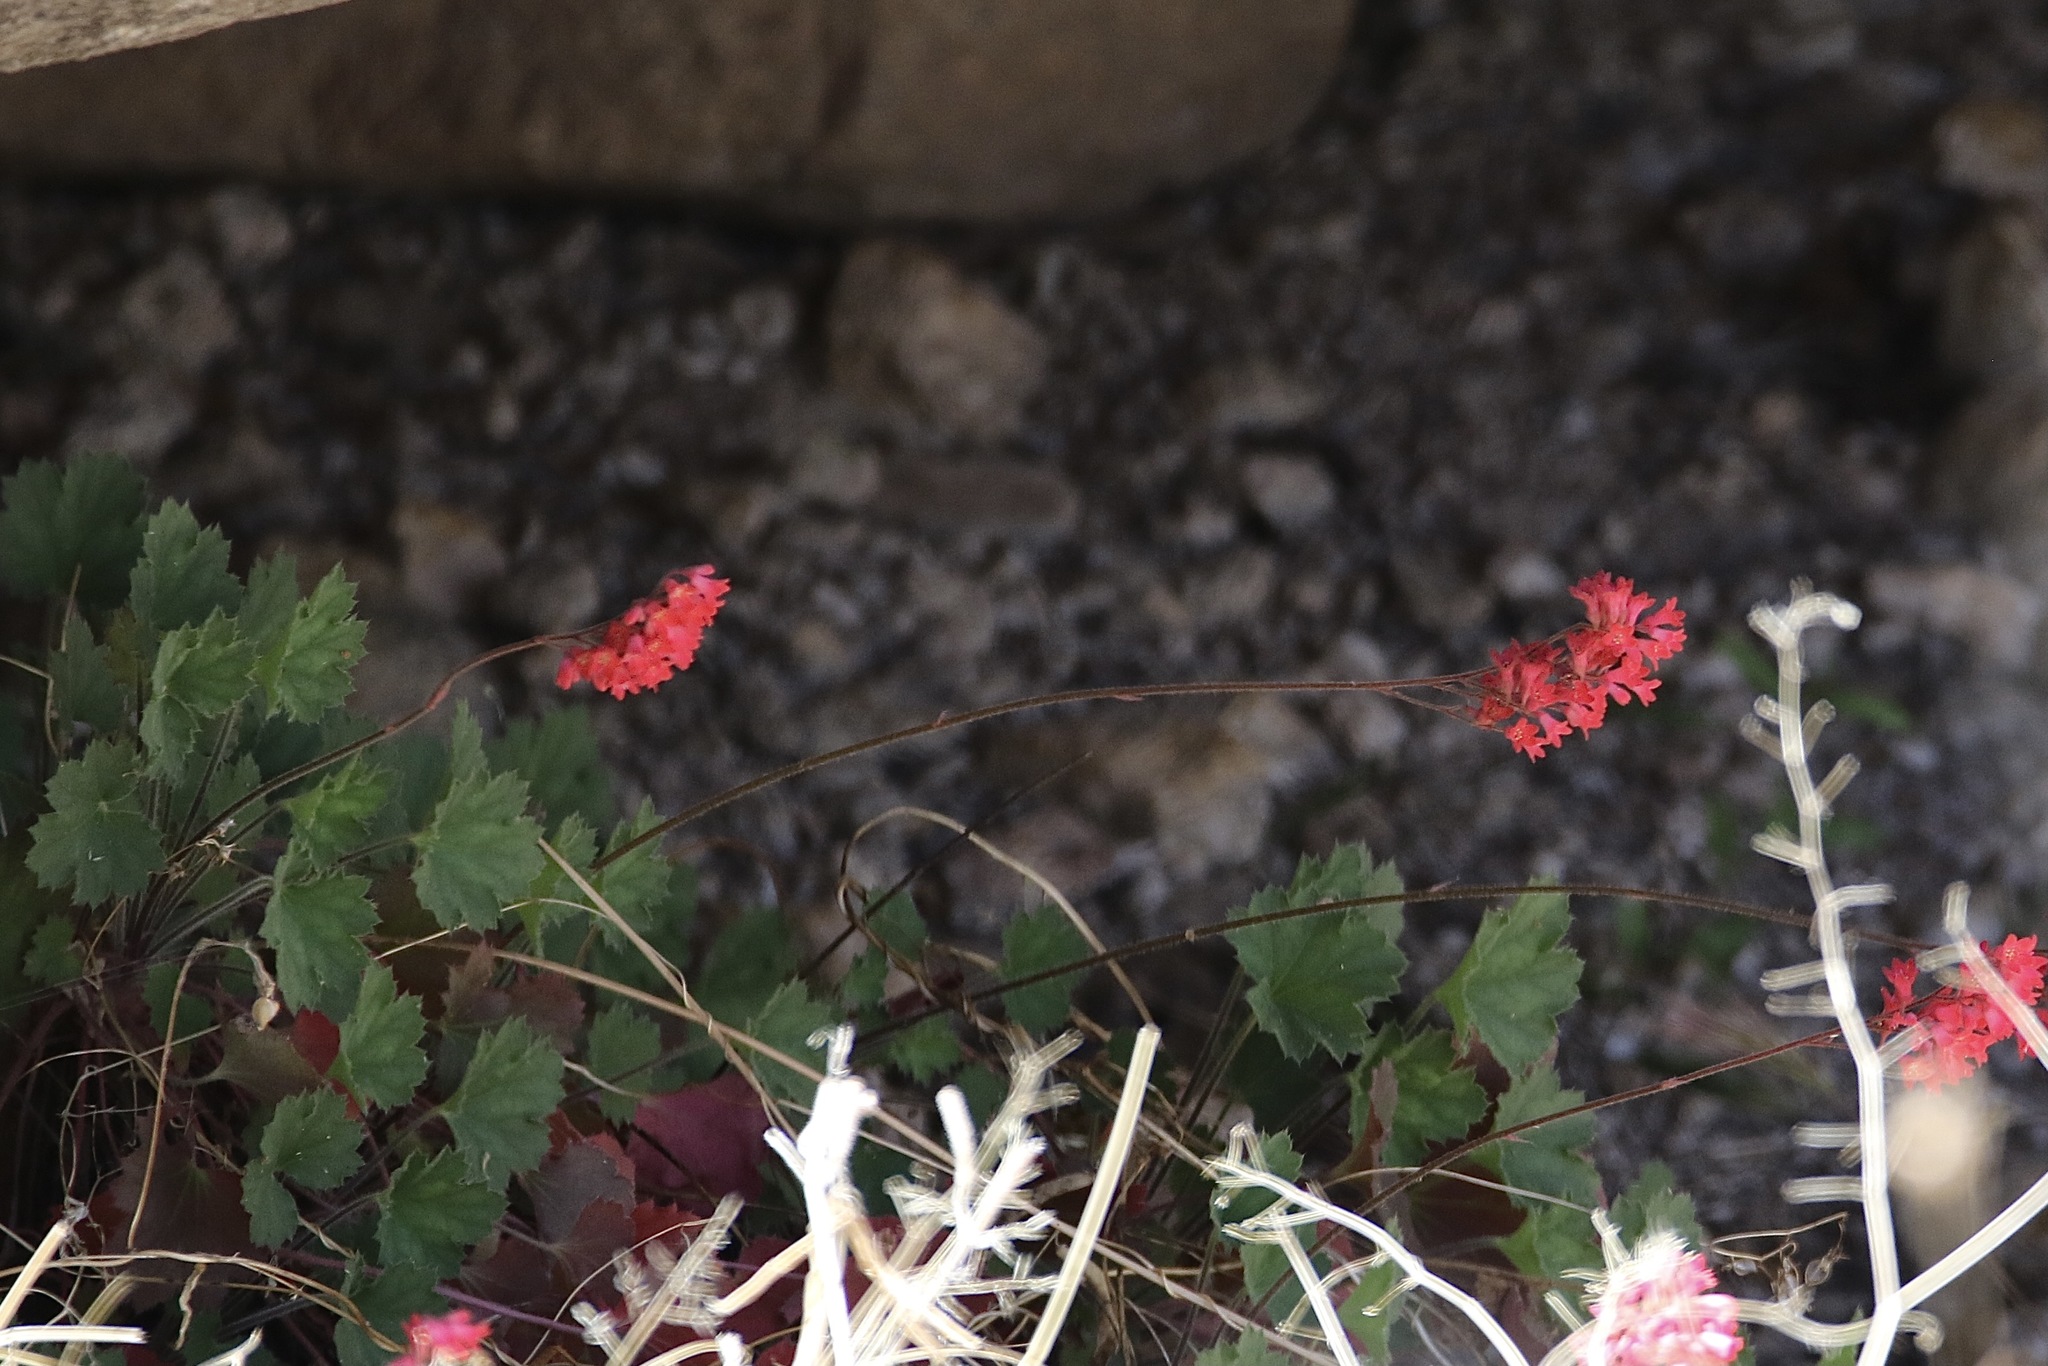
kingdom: Plantae
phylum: Tracheophyta
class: Magnoliopsida
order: Saxifragales
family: Saxifragaceae
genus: Heuchera
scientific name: Heuchera sanguinea
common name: Coralbells
